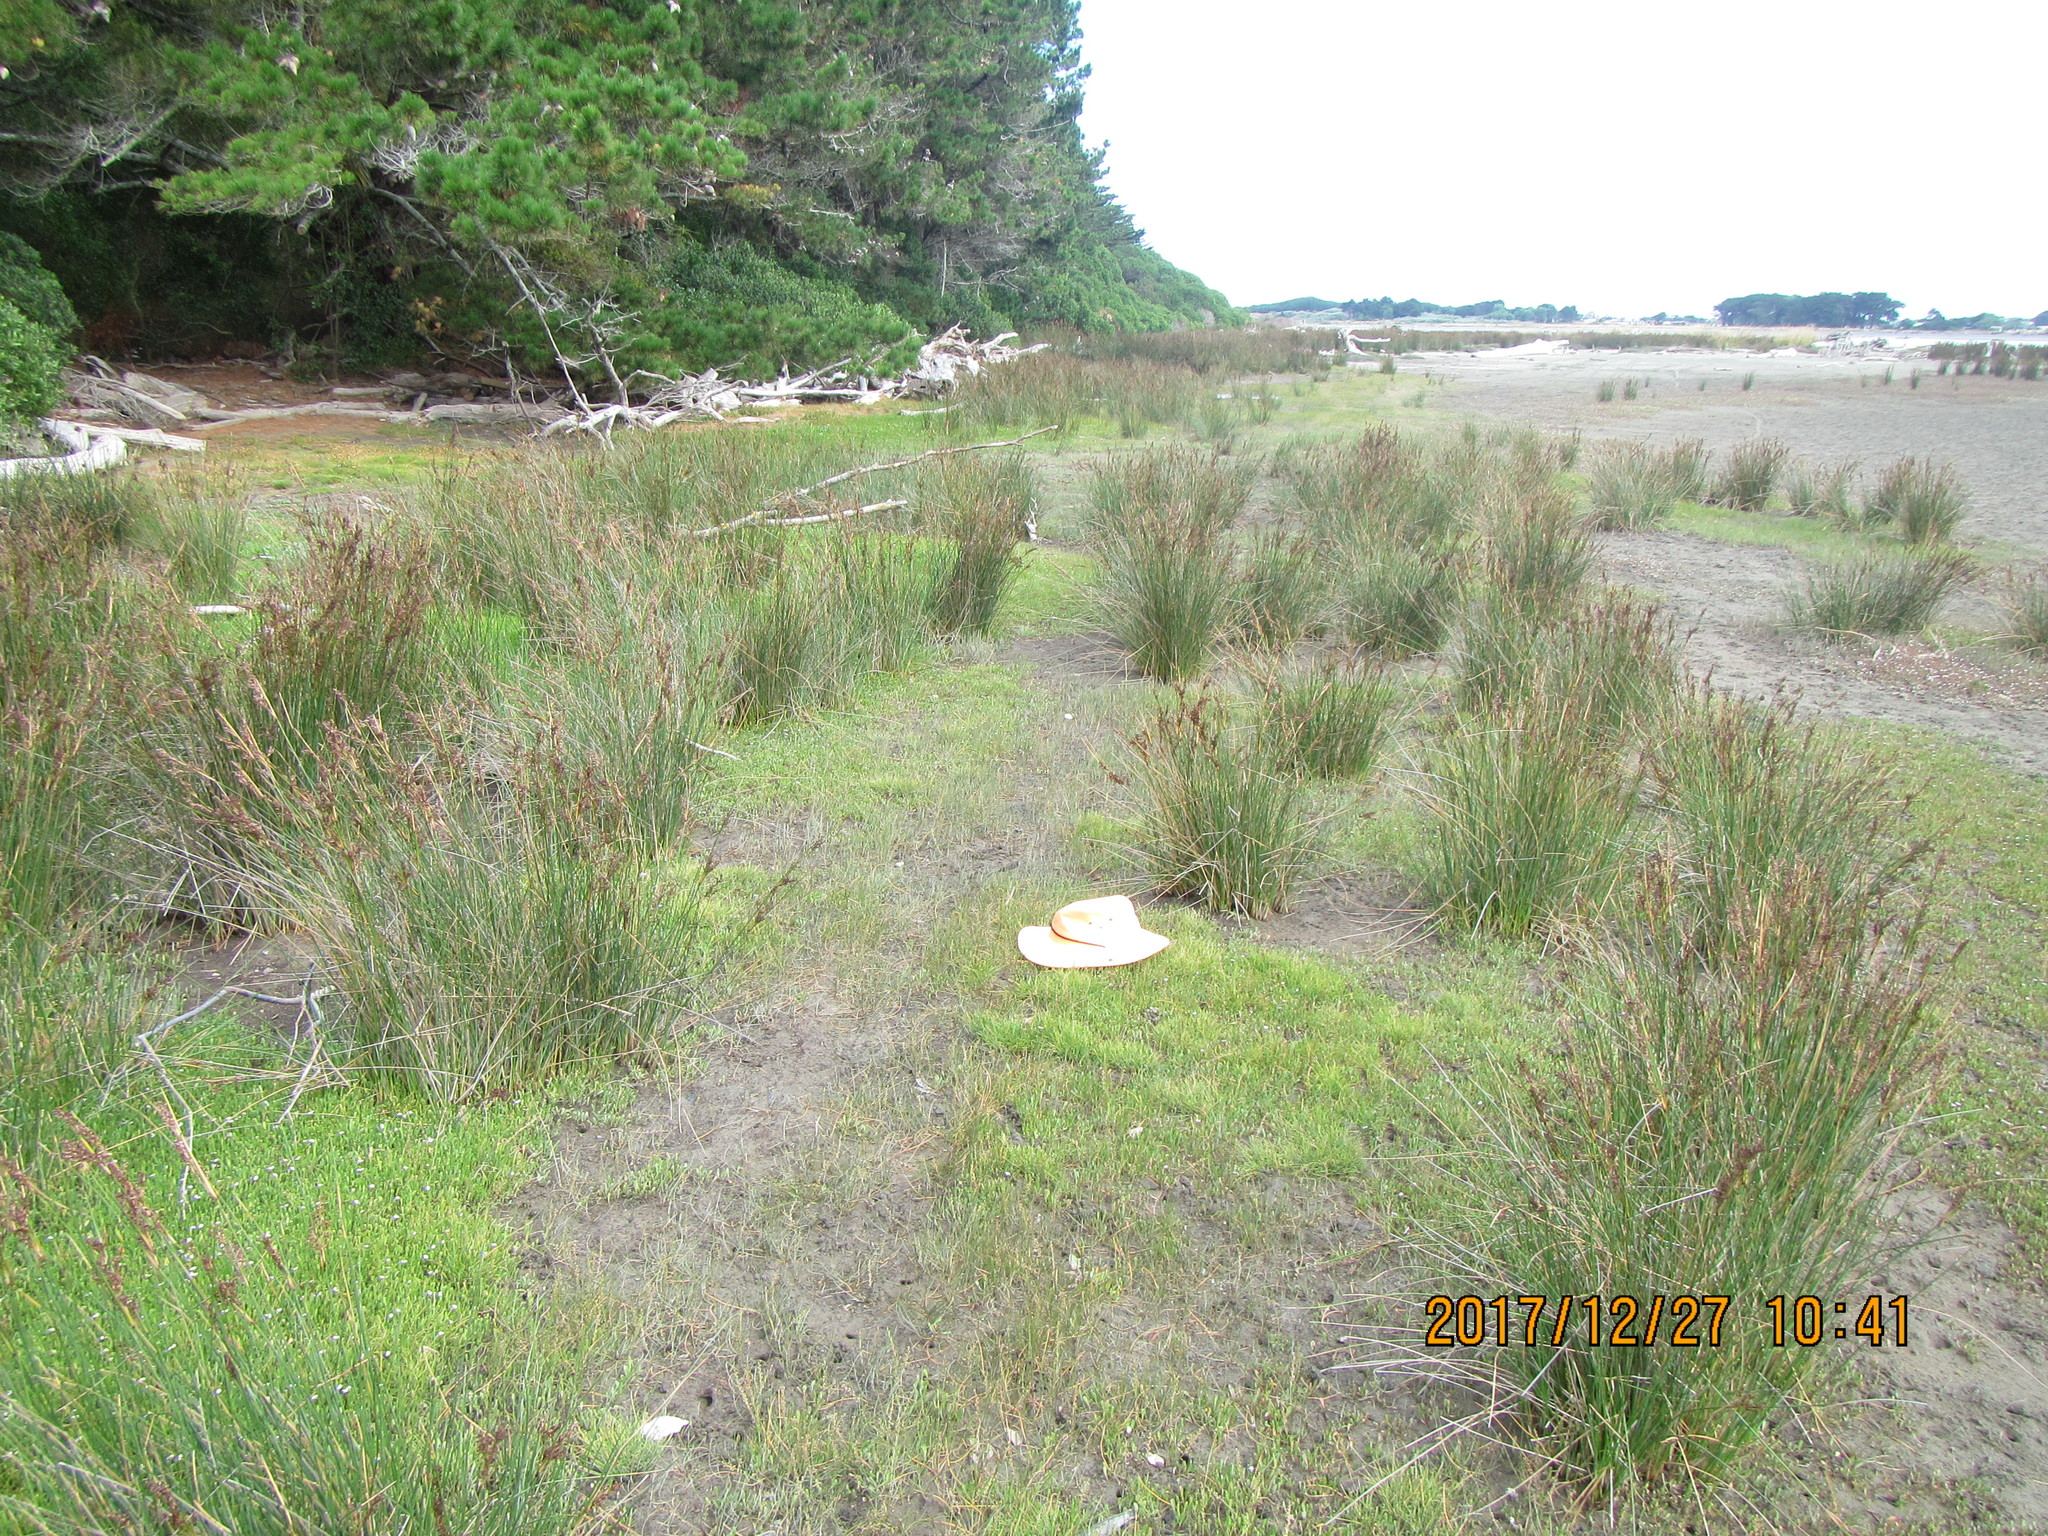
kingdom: Plantae
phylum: Tracheophyta
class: Liliopsida
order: Alismatales
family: Juncaginaceae
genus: Triglochin
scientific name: Triglochin striata
